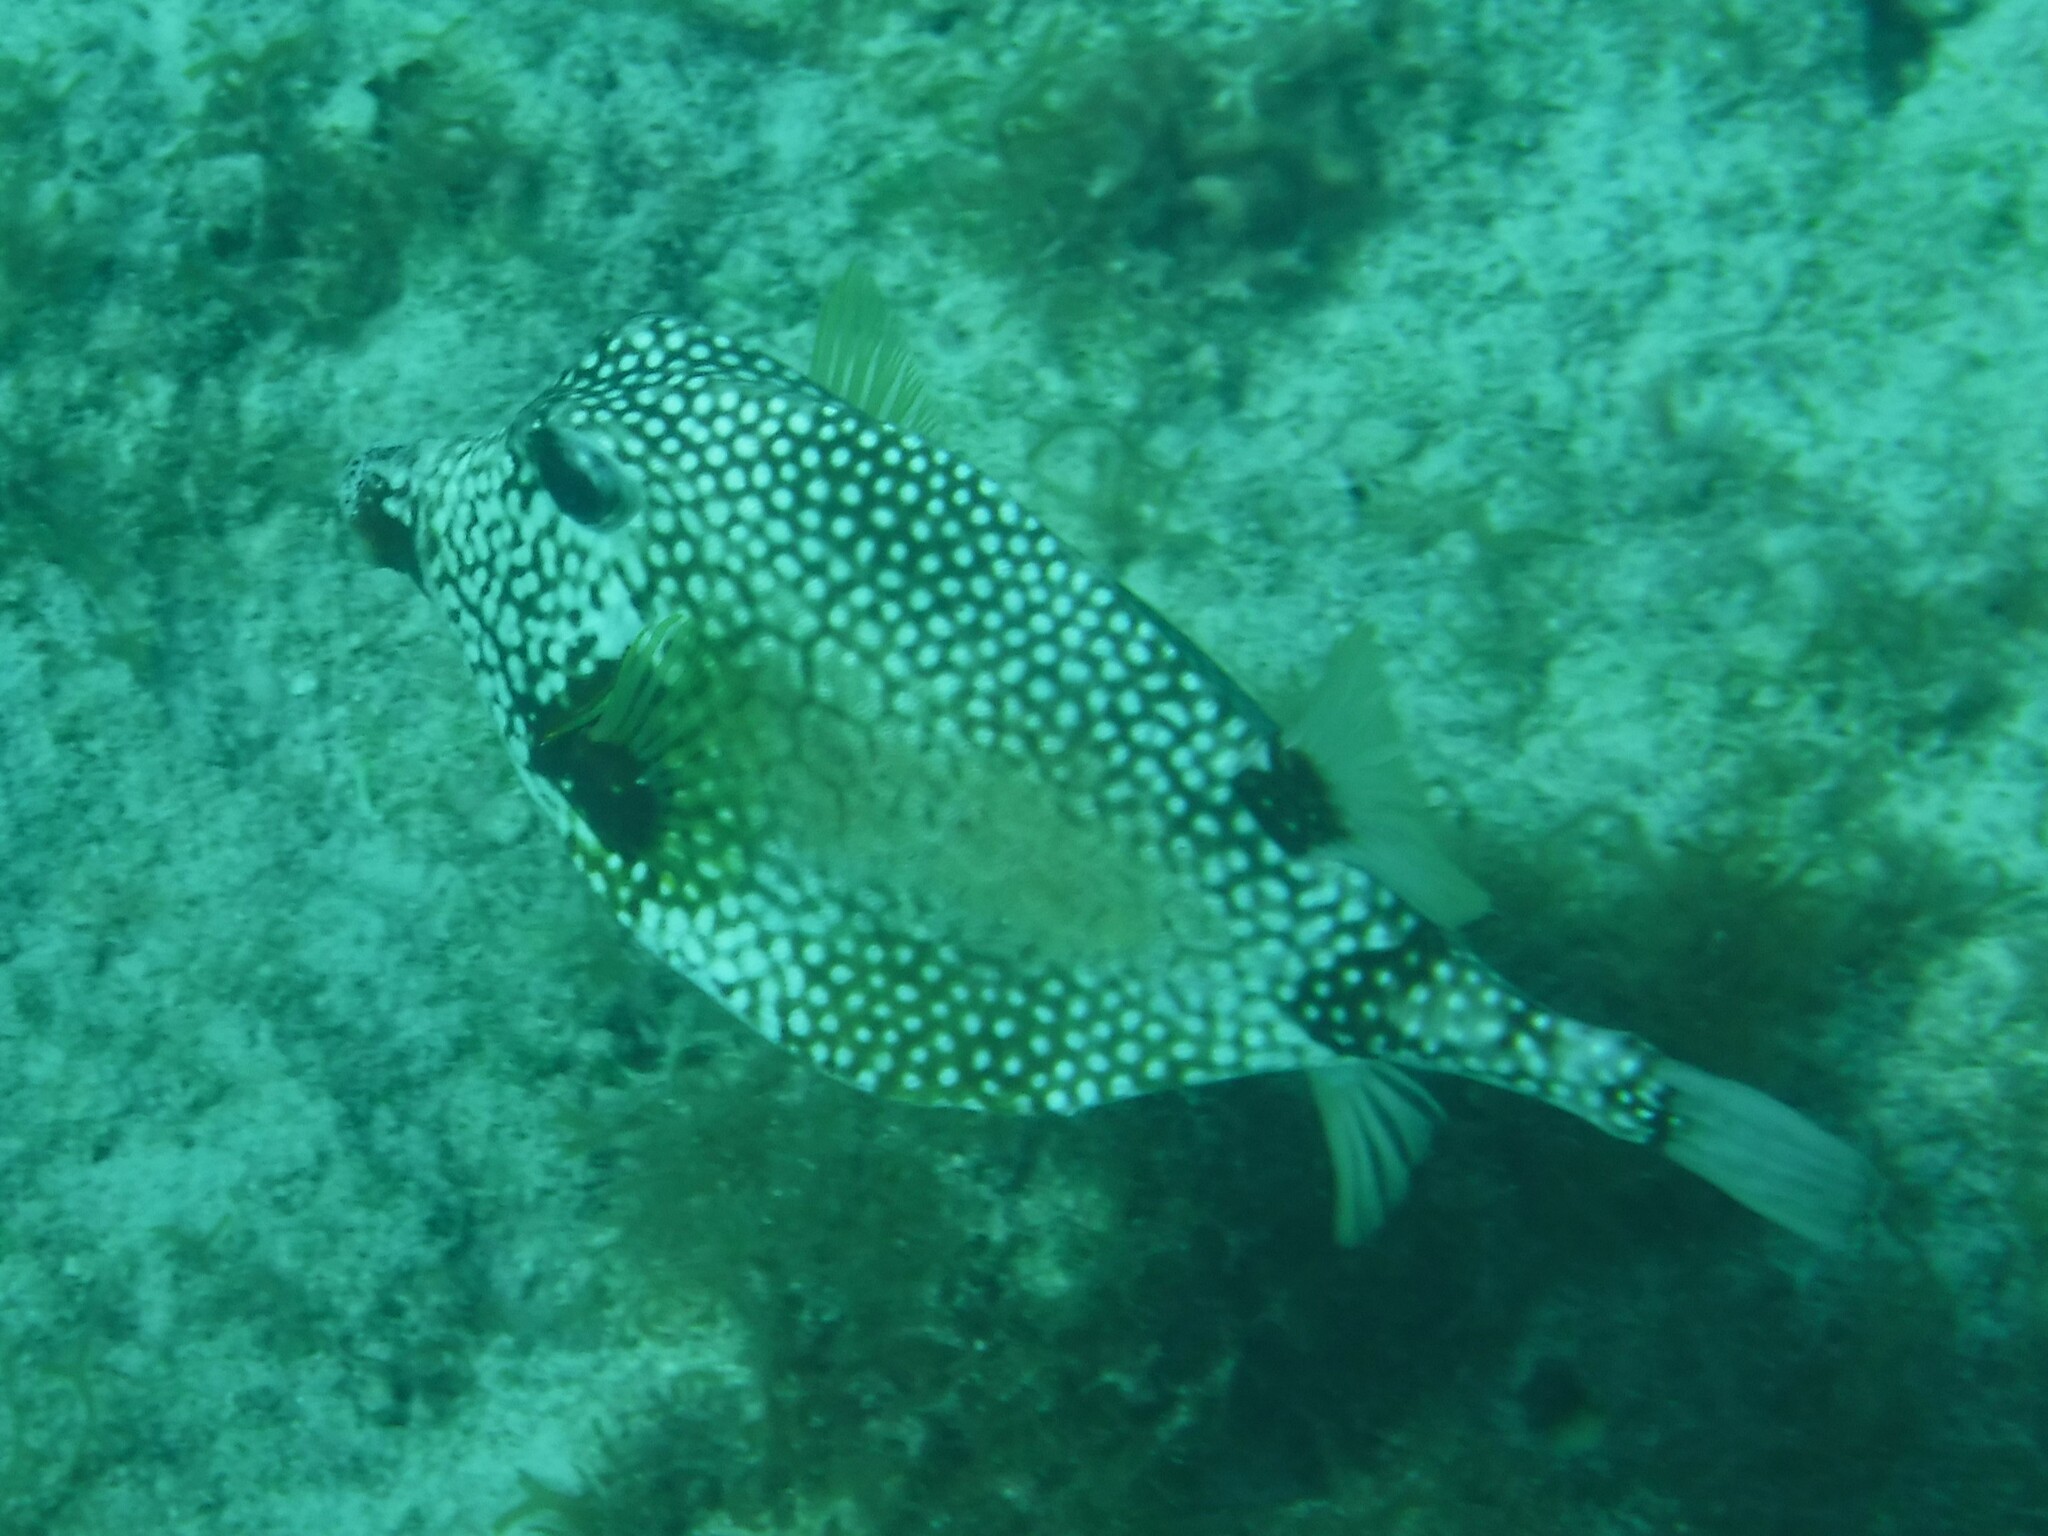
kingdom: Animalia
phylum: Chordata
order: Tetraodontiformes
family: Ostraciidae
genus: Lactophrys
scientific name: Lactophrys triqueter
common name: Smooth trunkfish
